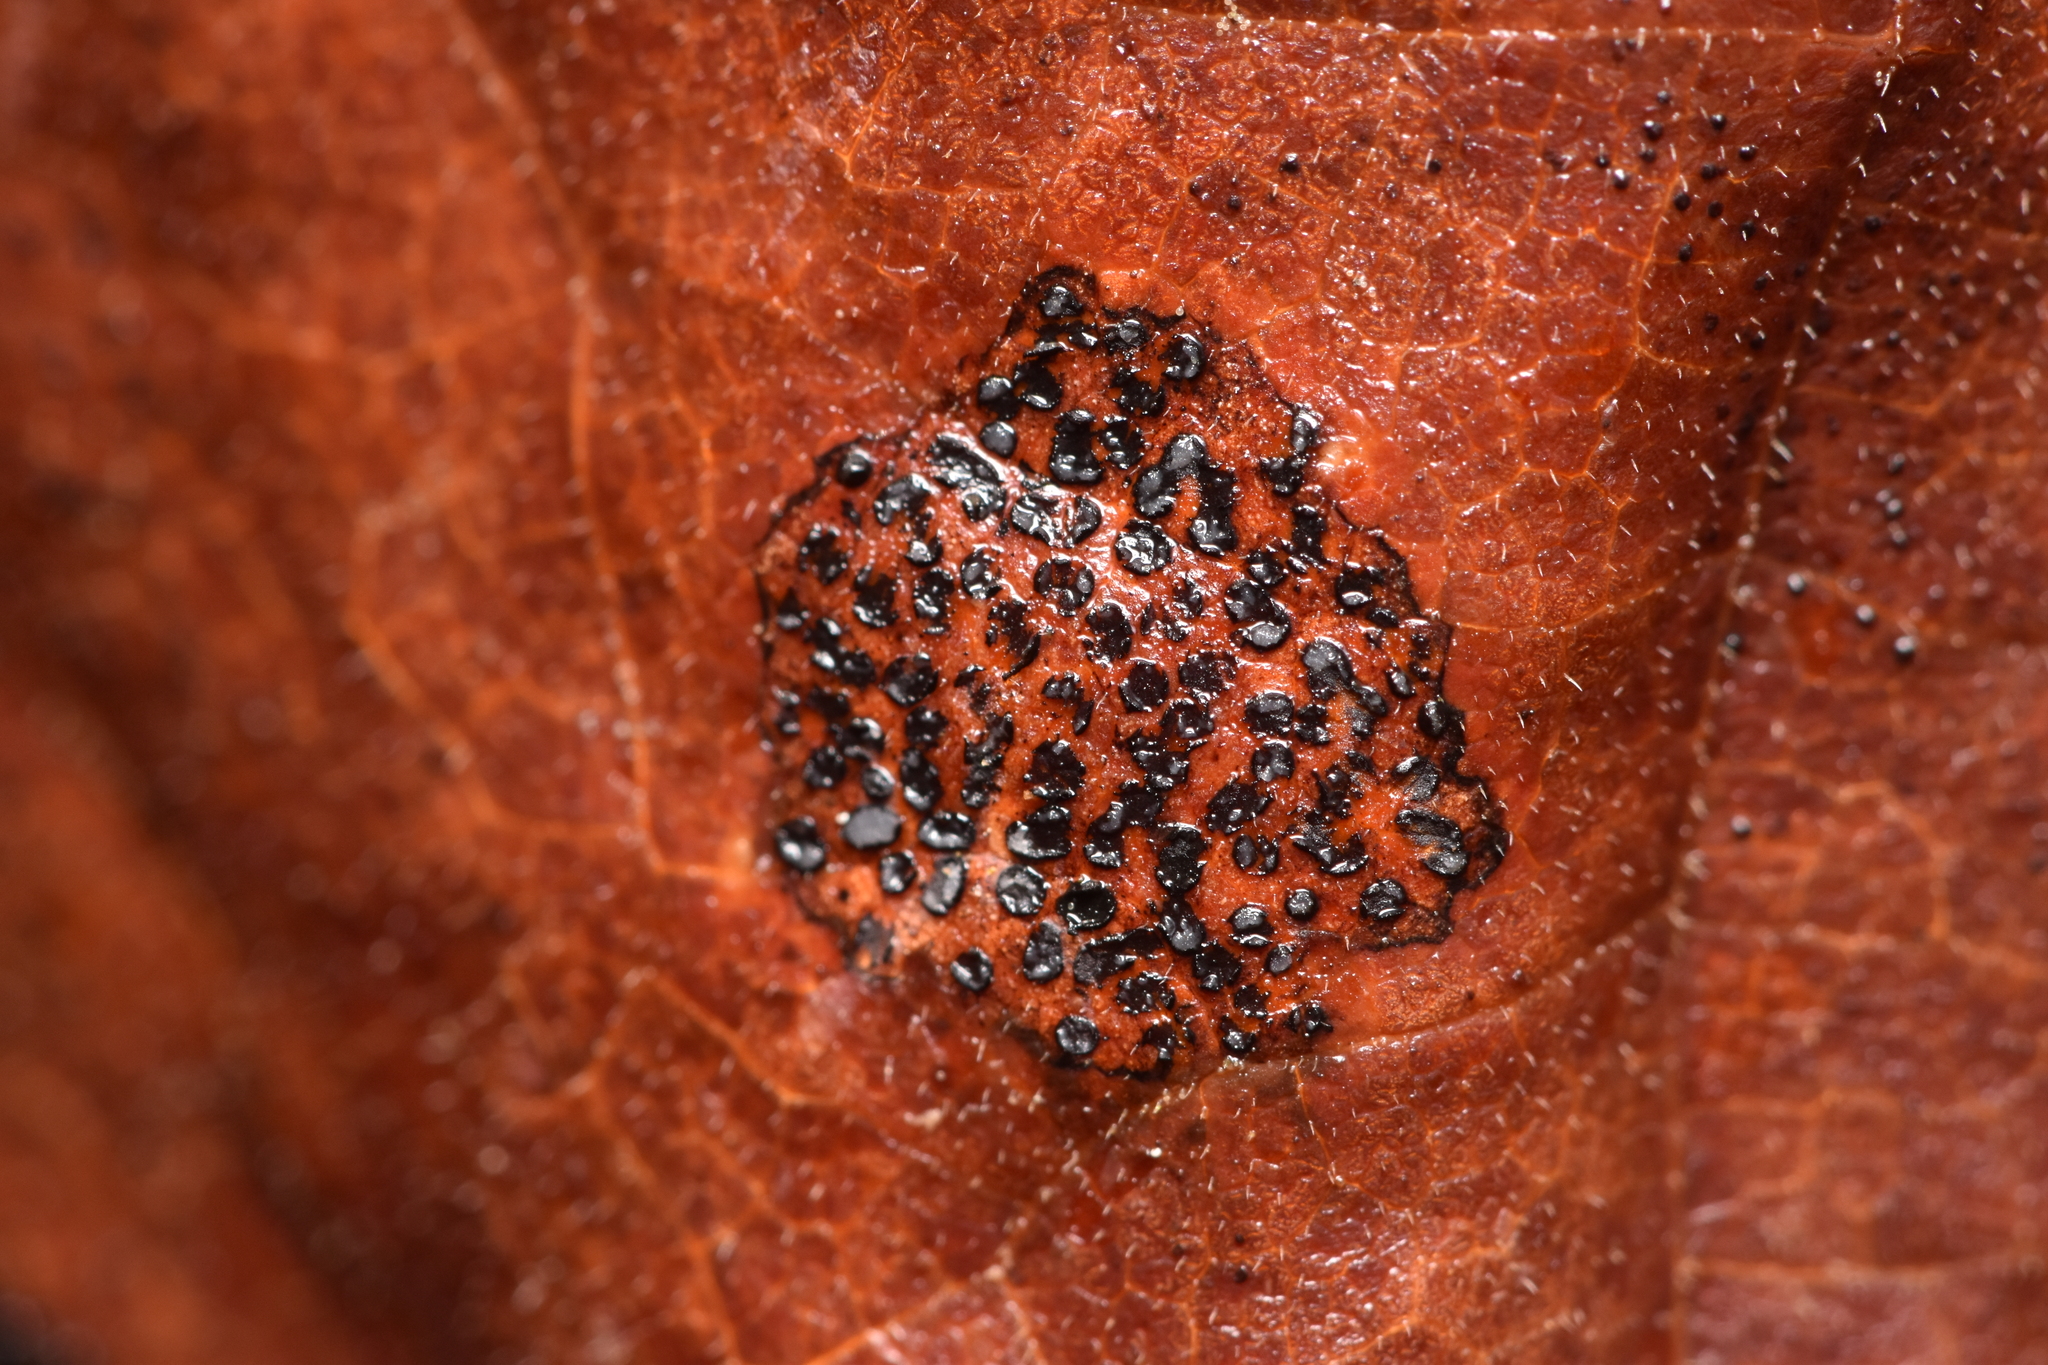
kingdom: Fungi
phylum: Ascomycota
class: Leotiomycetes
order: Rhytismatales
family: Rhytismataceae
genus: Rhytisma
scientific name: Rhytisma punctatum
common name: Speckled tar spot
